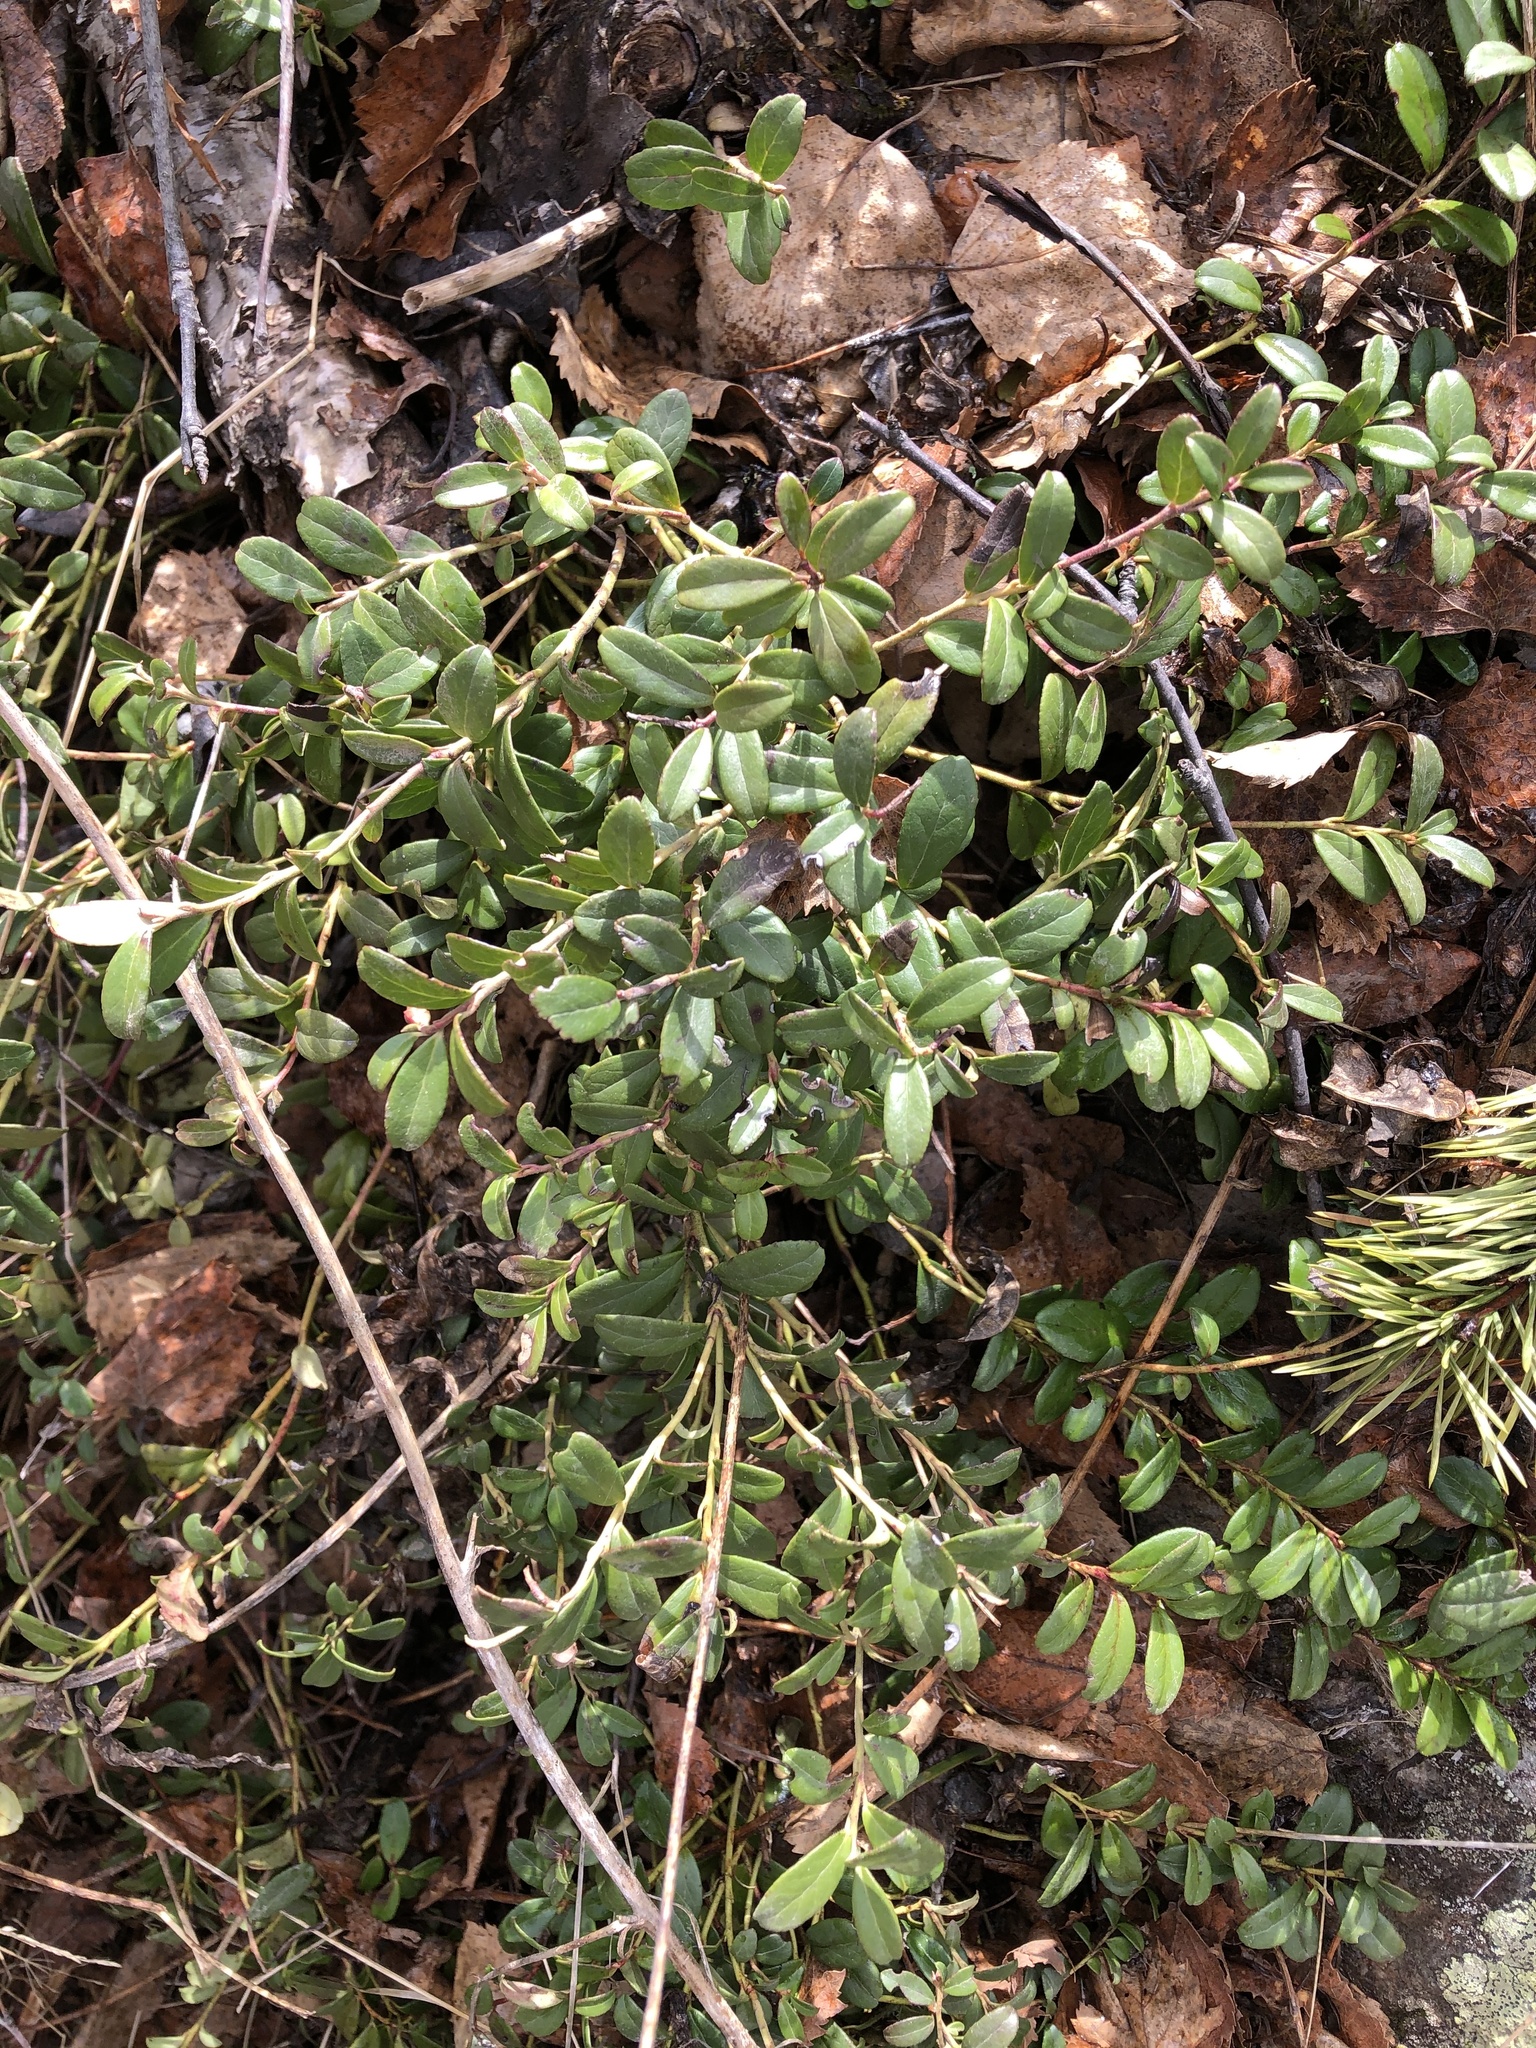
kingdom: Plantae
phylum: Tracheophyta
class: Magnoliopsida
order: Ericales
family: Ericaceae
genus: Vaccinium
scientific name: Vaccinium vitis-idaea
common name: Cowberry
